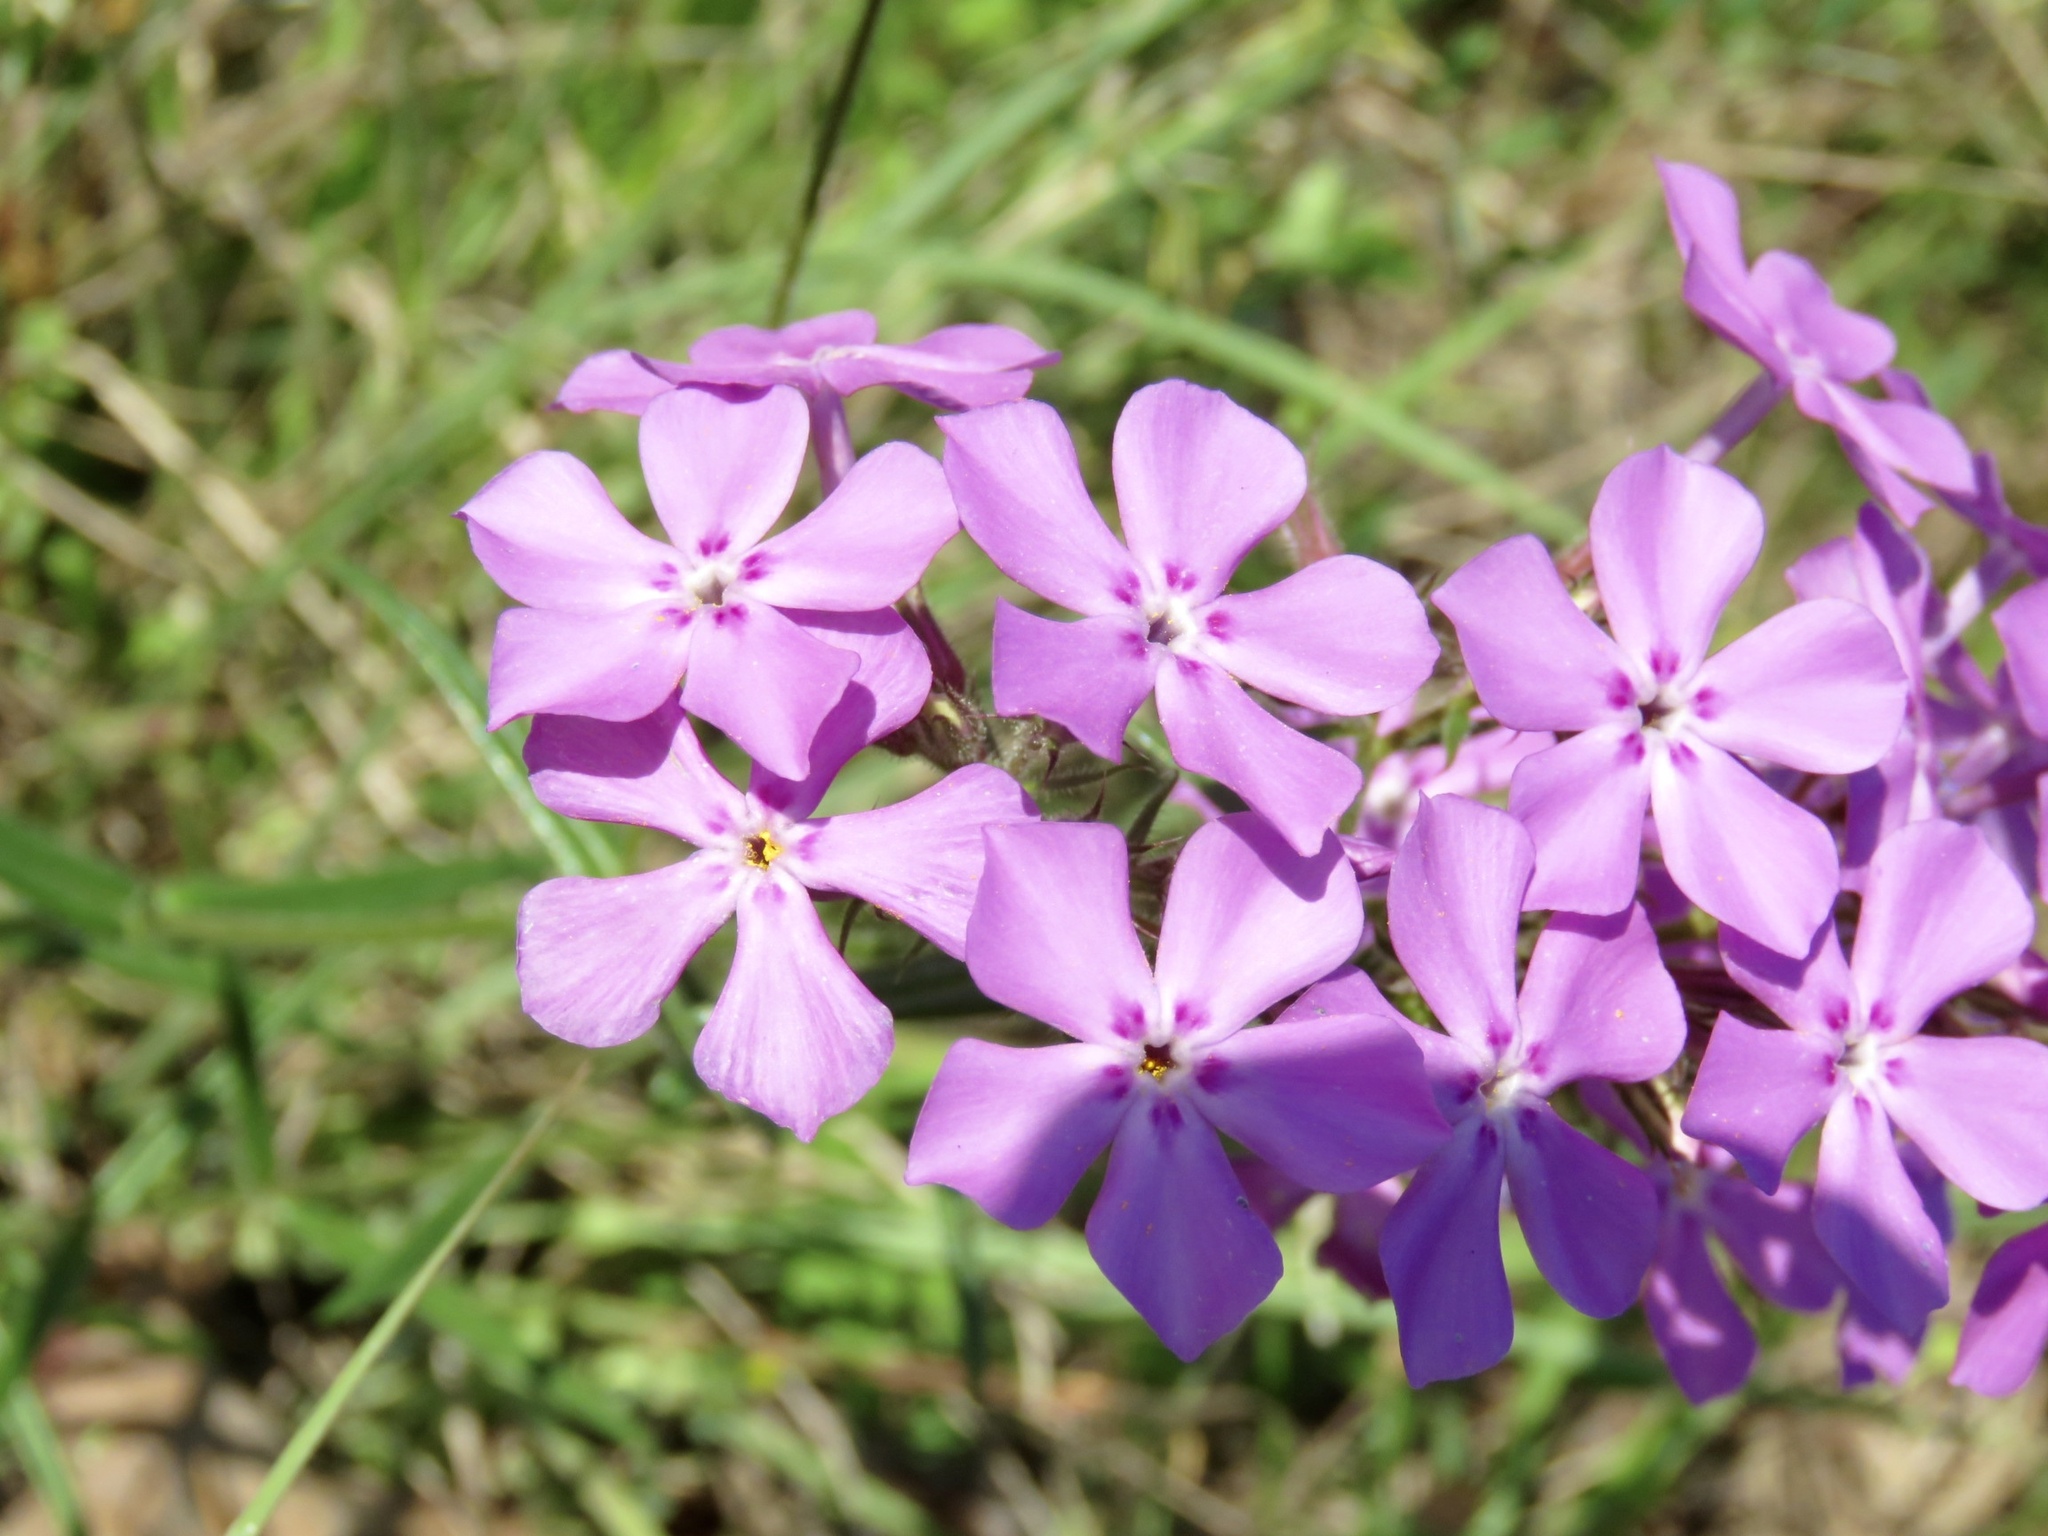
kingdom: Plantae
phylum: Tracheophyta
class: Magnoliopsida
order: Ericales
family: Polemoniaceae
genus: Phlox
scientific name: Phlox pilosa
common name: Prairie phlox
